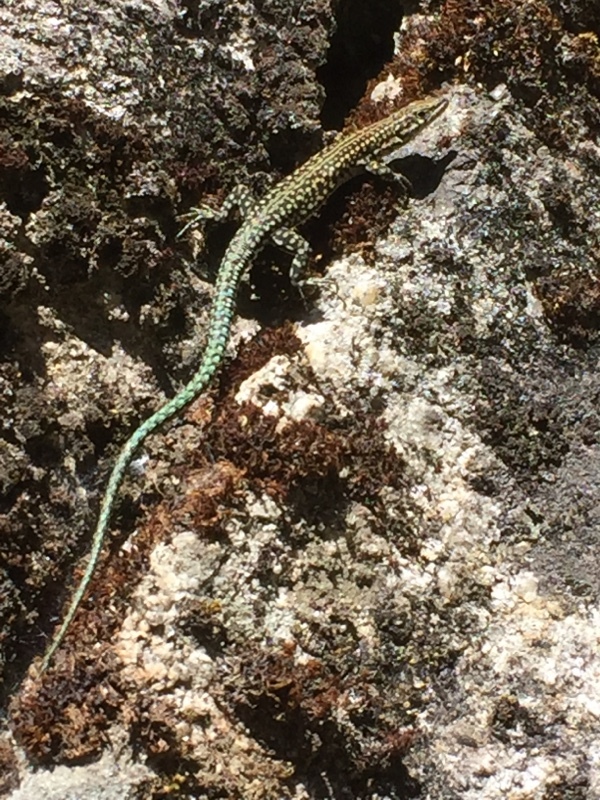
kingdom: Animalia
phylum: Chordata
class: Squamata
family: Lacertidae
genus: Podarcis
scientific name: Podarcis bocagei
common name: Bocage's wall lizard
